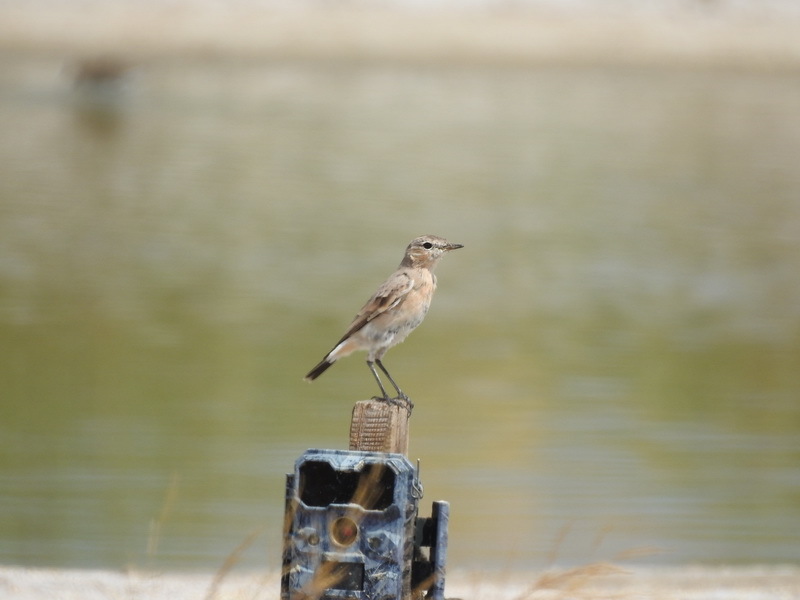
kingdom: Animalia
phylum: Chordata
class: Aves
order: Passeriformes
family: Muscicapidae
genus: Oenanthe
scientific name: Oenanthe oenanthe
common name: Northern wheatear
